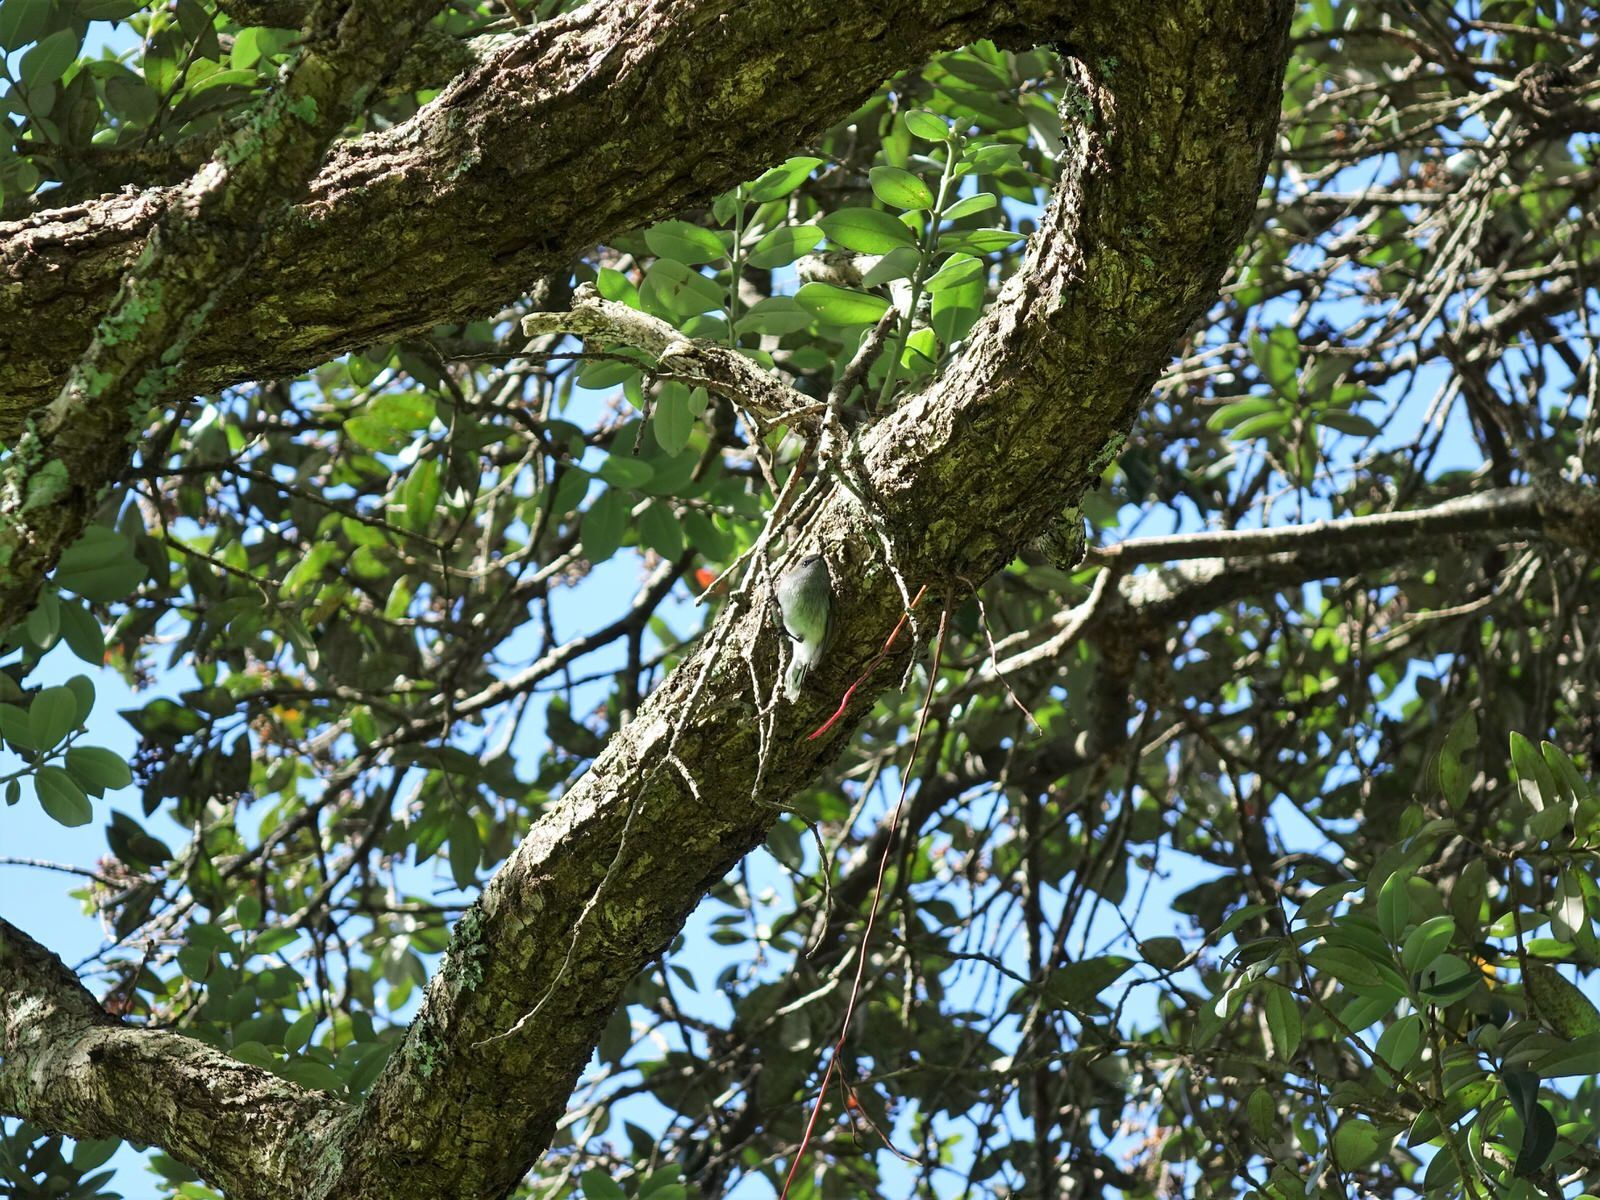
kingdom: Animalia
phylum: Chordata
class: Aves
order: Passeriformes
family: Acanthizidae
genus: Gerygone
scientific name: Gerygone igata
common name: Grey gerygone
